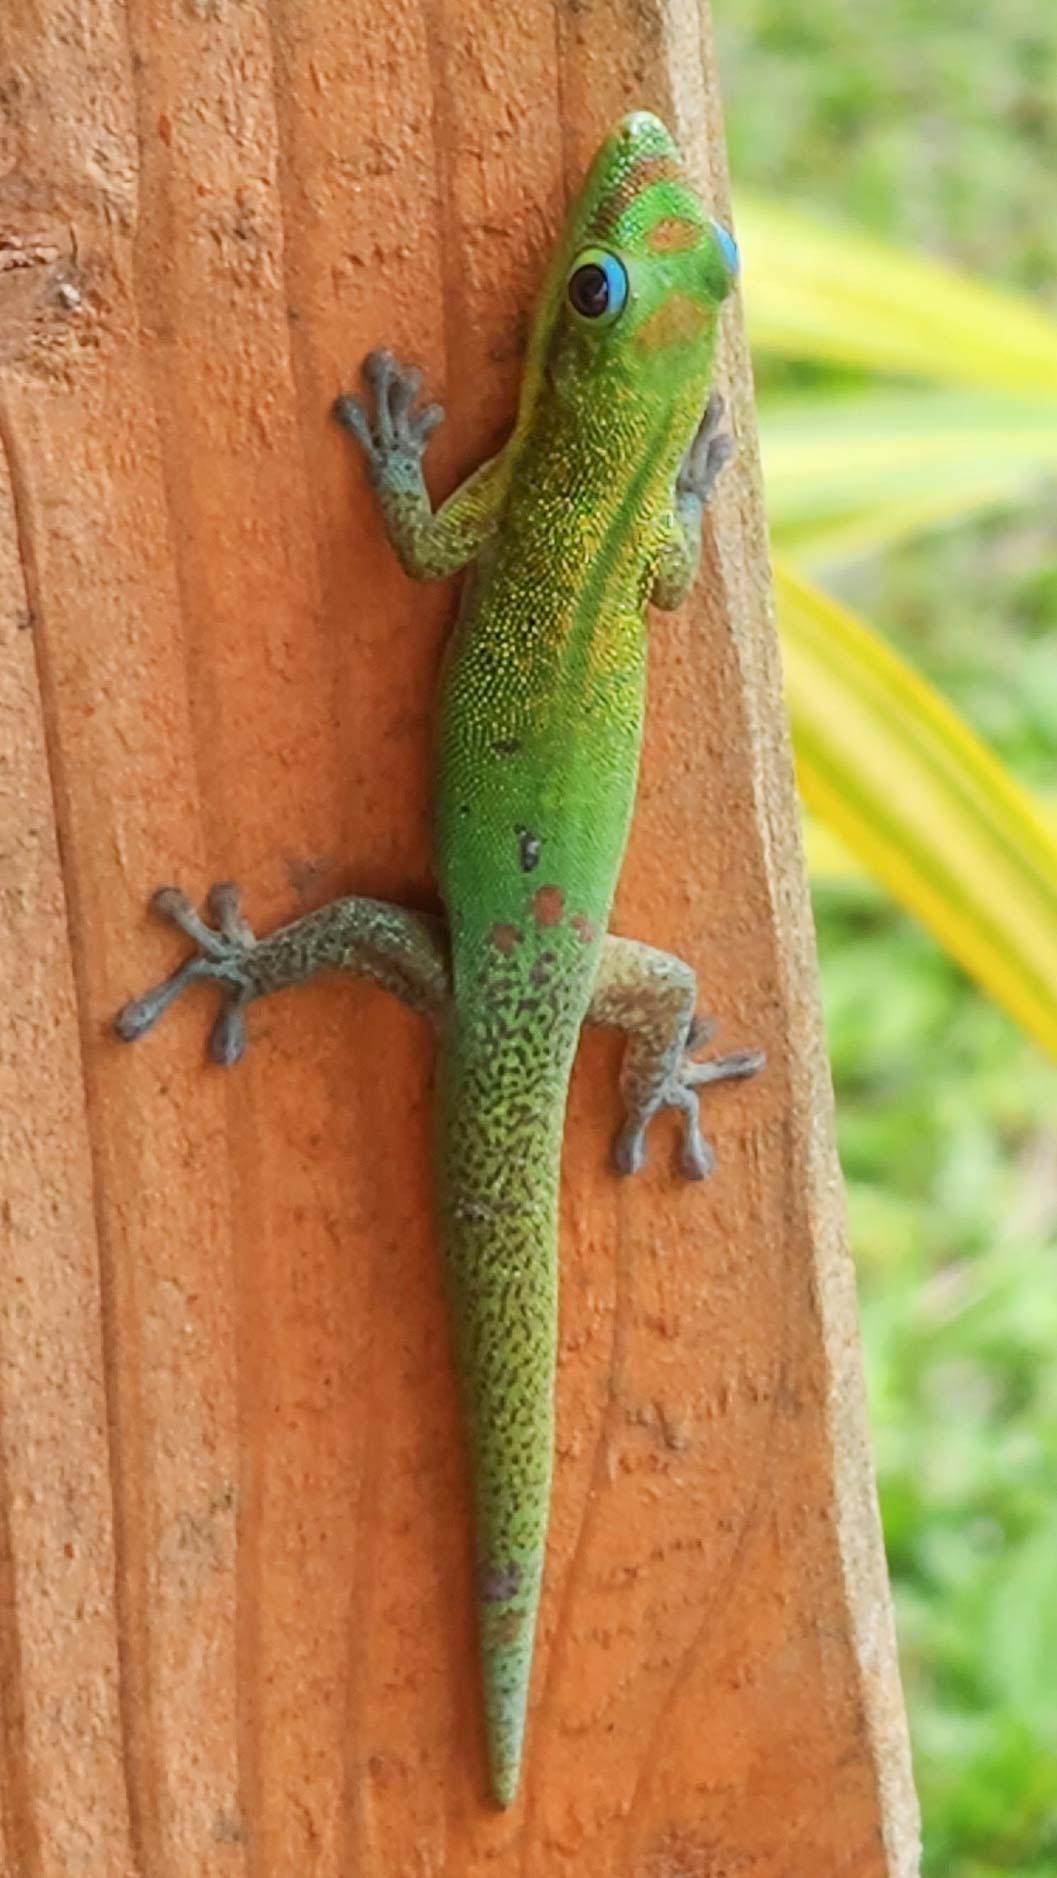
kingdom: Animalia
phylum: Chordata
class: Squamata
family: Gekkonidae
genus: Phelsuma
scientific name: Phelsuma laticauda
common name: Gold dust day gecko
